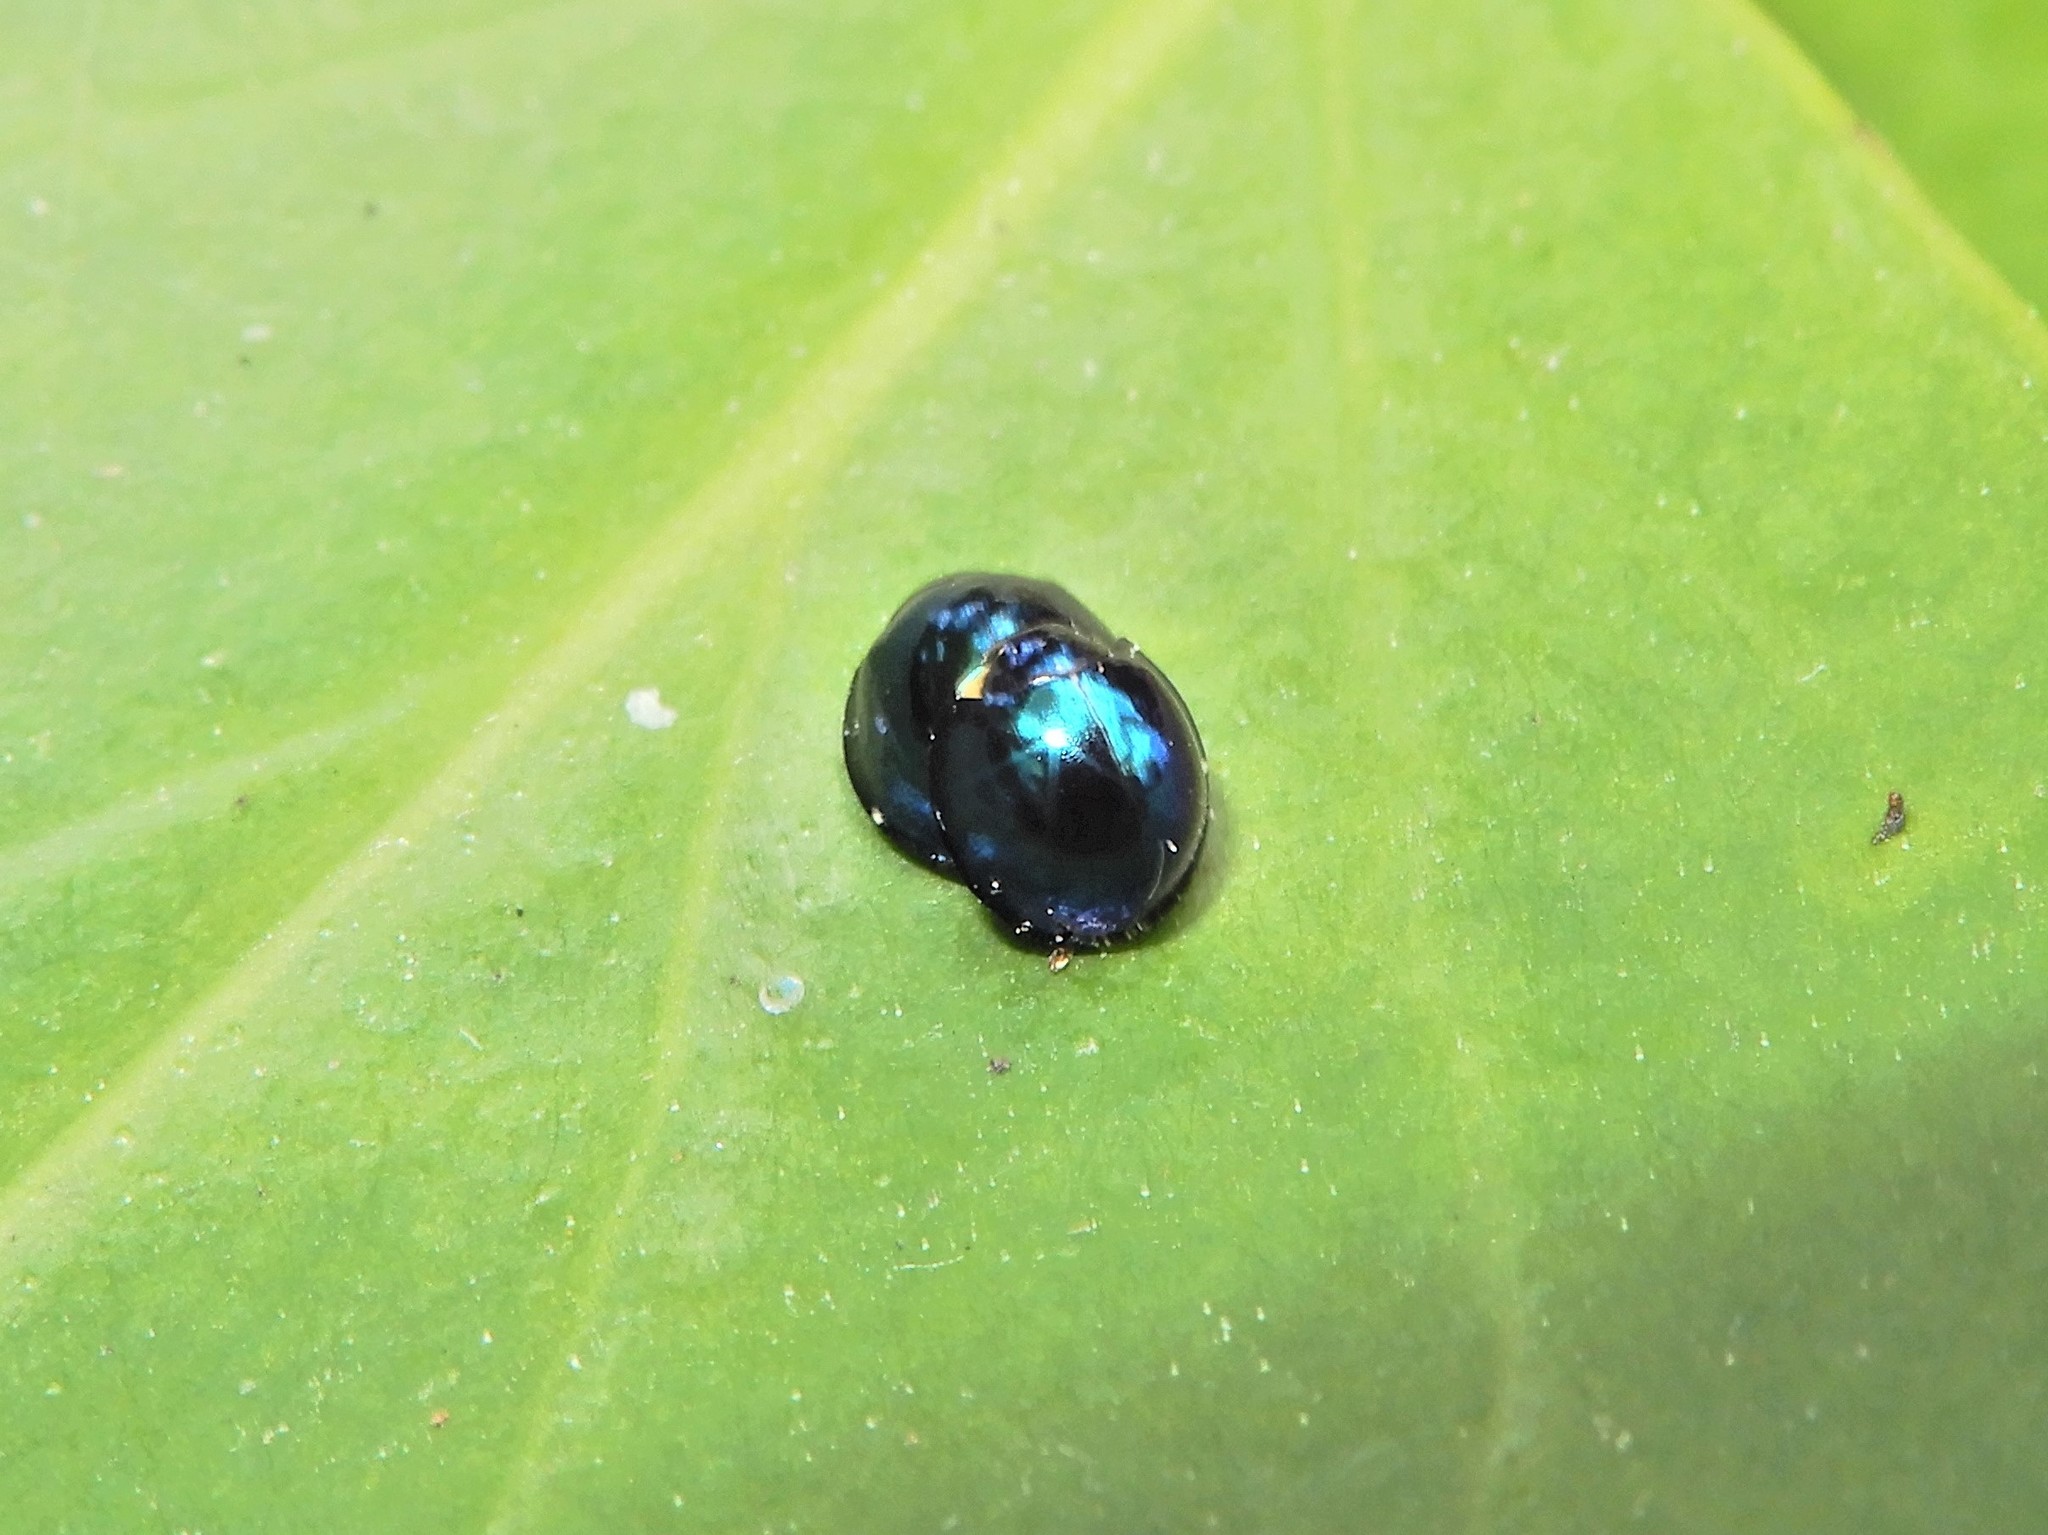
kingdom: Animalia
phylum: Arthropoda
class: Insecta
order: Coleoptera
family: Coccinellidae
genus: Halmus
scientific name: Halmus chalybeus
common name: Steel blue ladybird beetle
